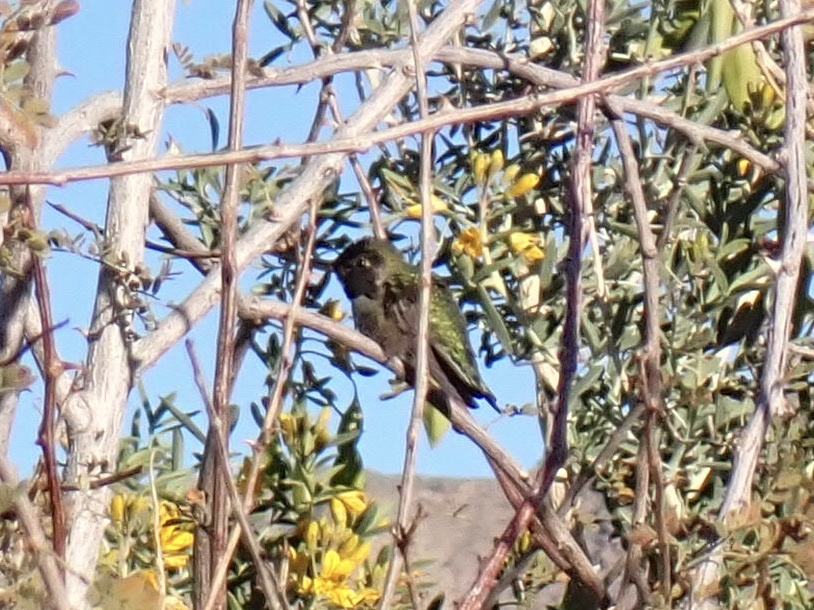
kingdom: Animalia
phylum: Chordata
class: Aves
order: Apodiformes
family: Trochilidae
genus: Calypte
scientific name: Calypte anna
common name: Anna's hummingbird
